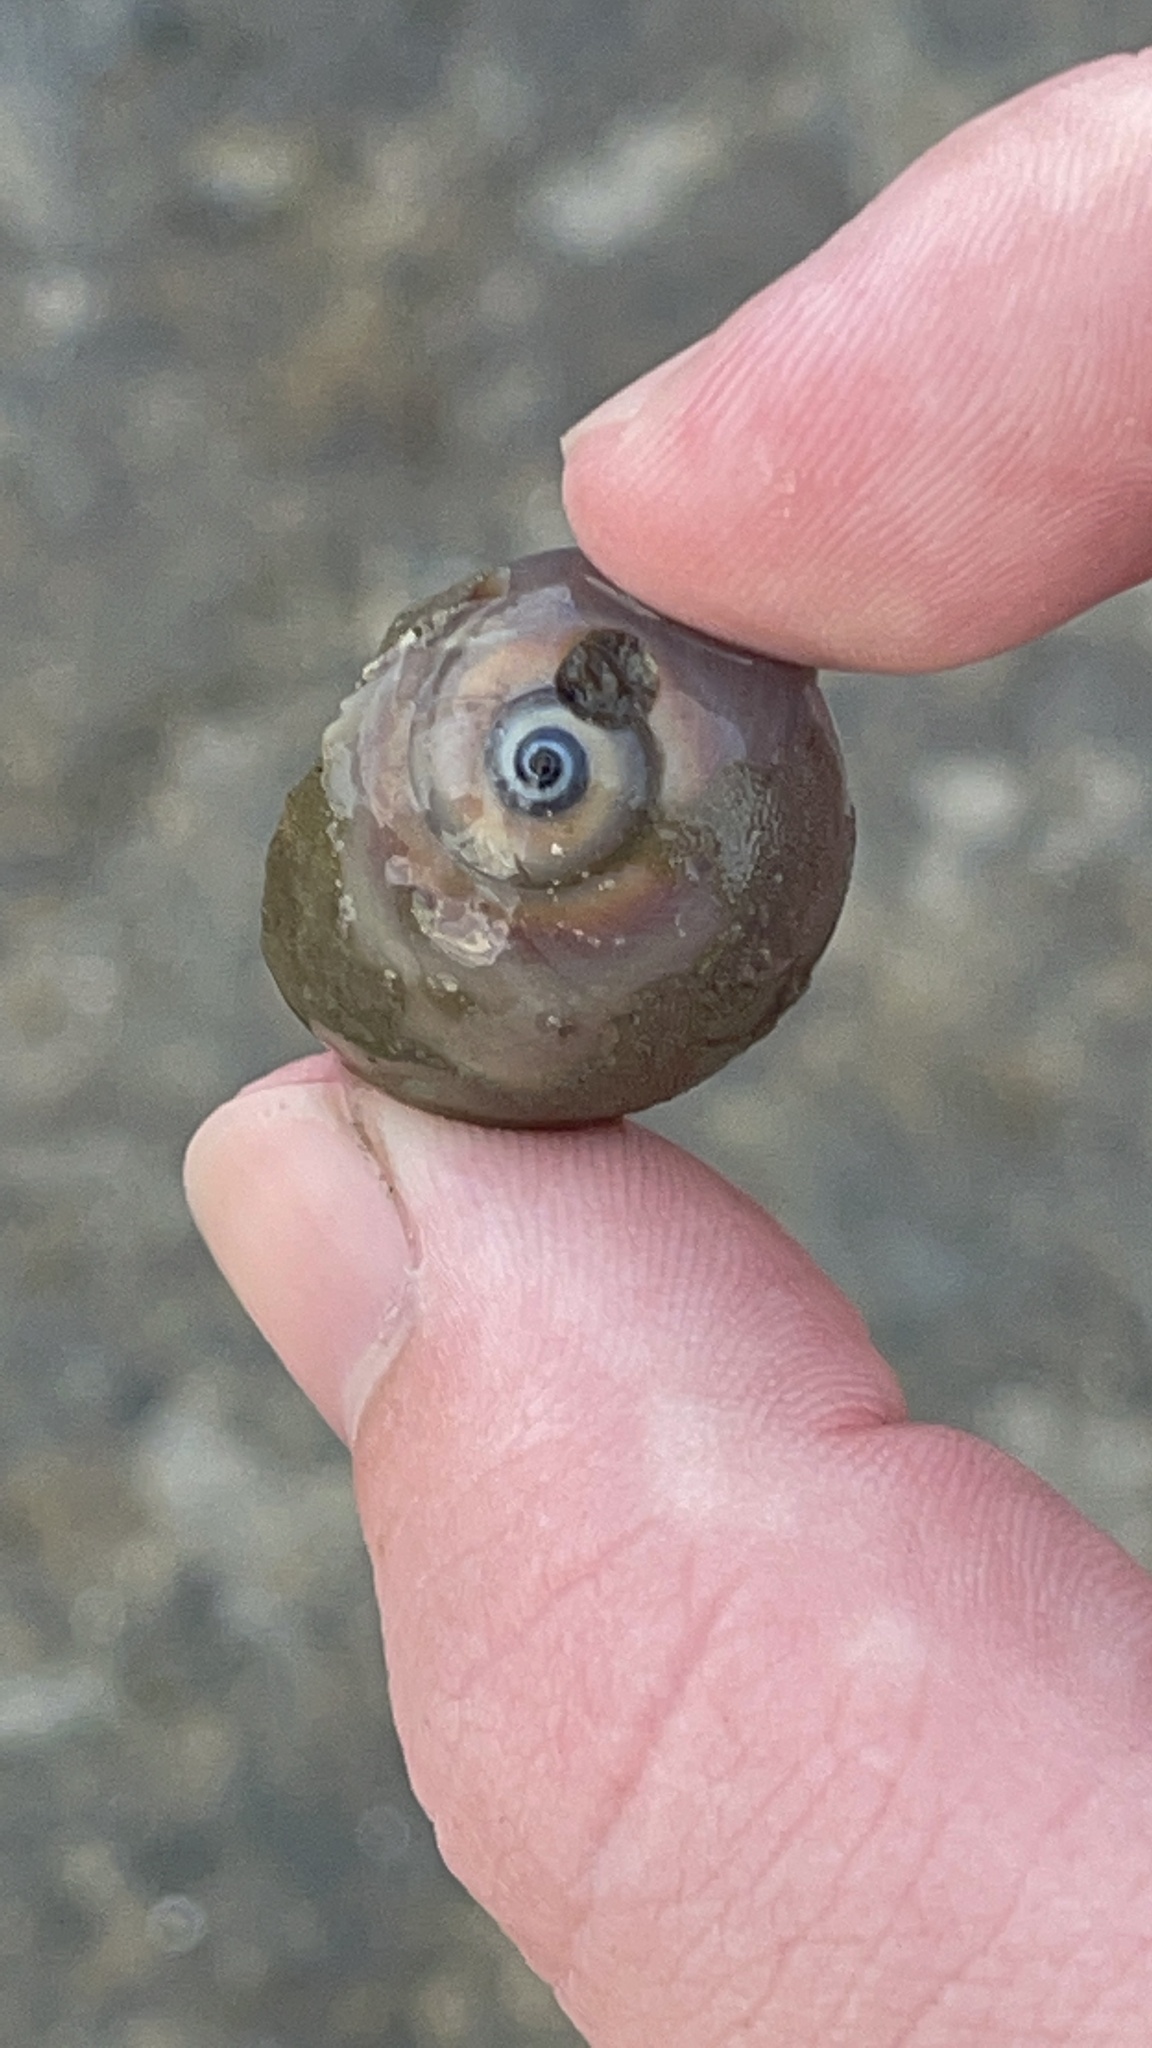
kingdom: Animalia
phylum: Mollusca
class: Gastropoda
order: Littorinimorpha
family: Naticidae
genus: Neverita
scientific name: Neverita duplicata
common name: Lobed moonsnail
